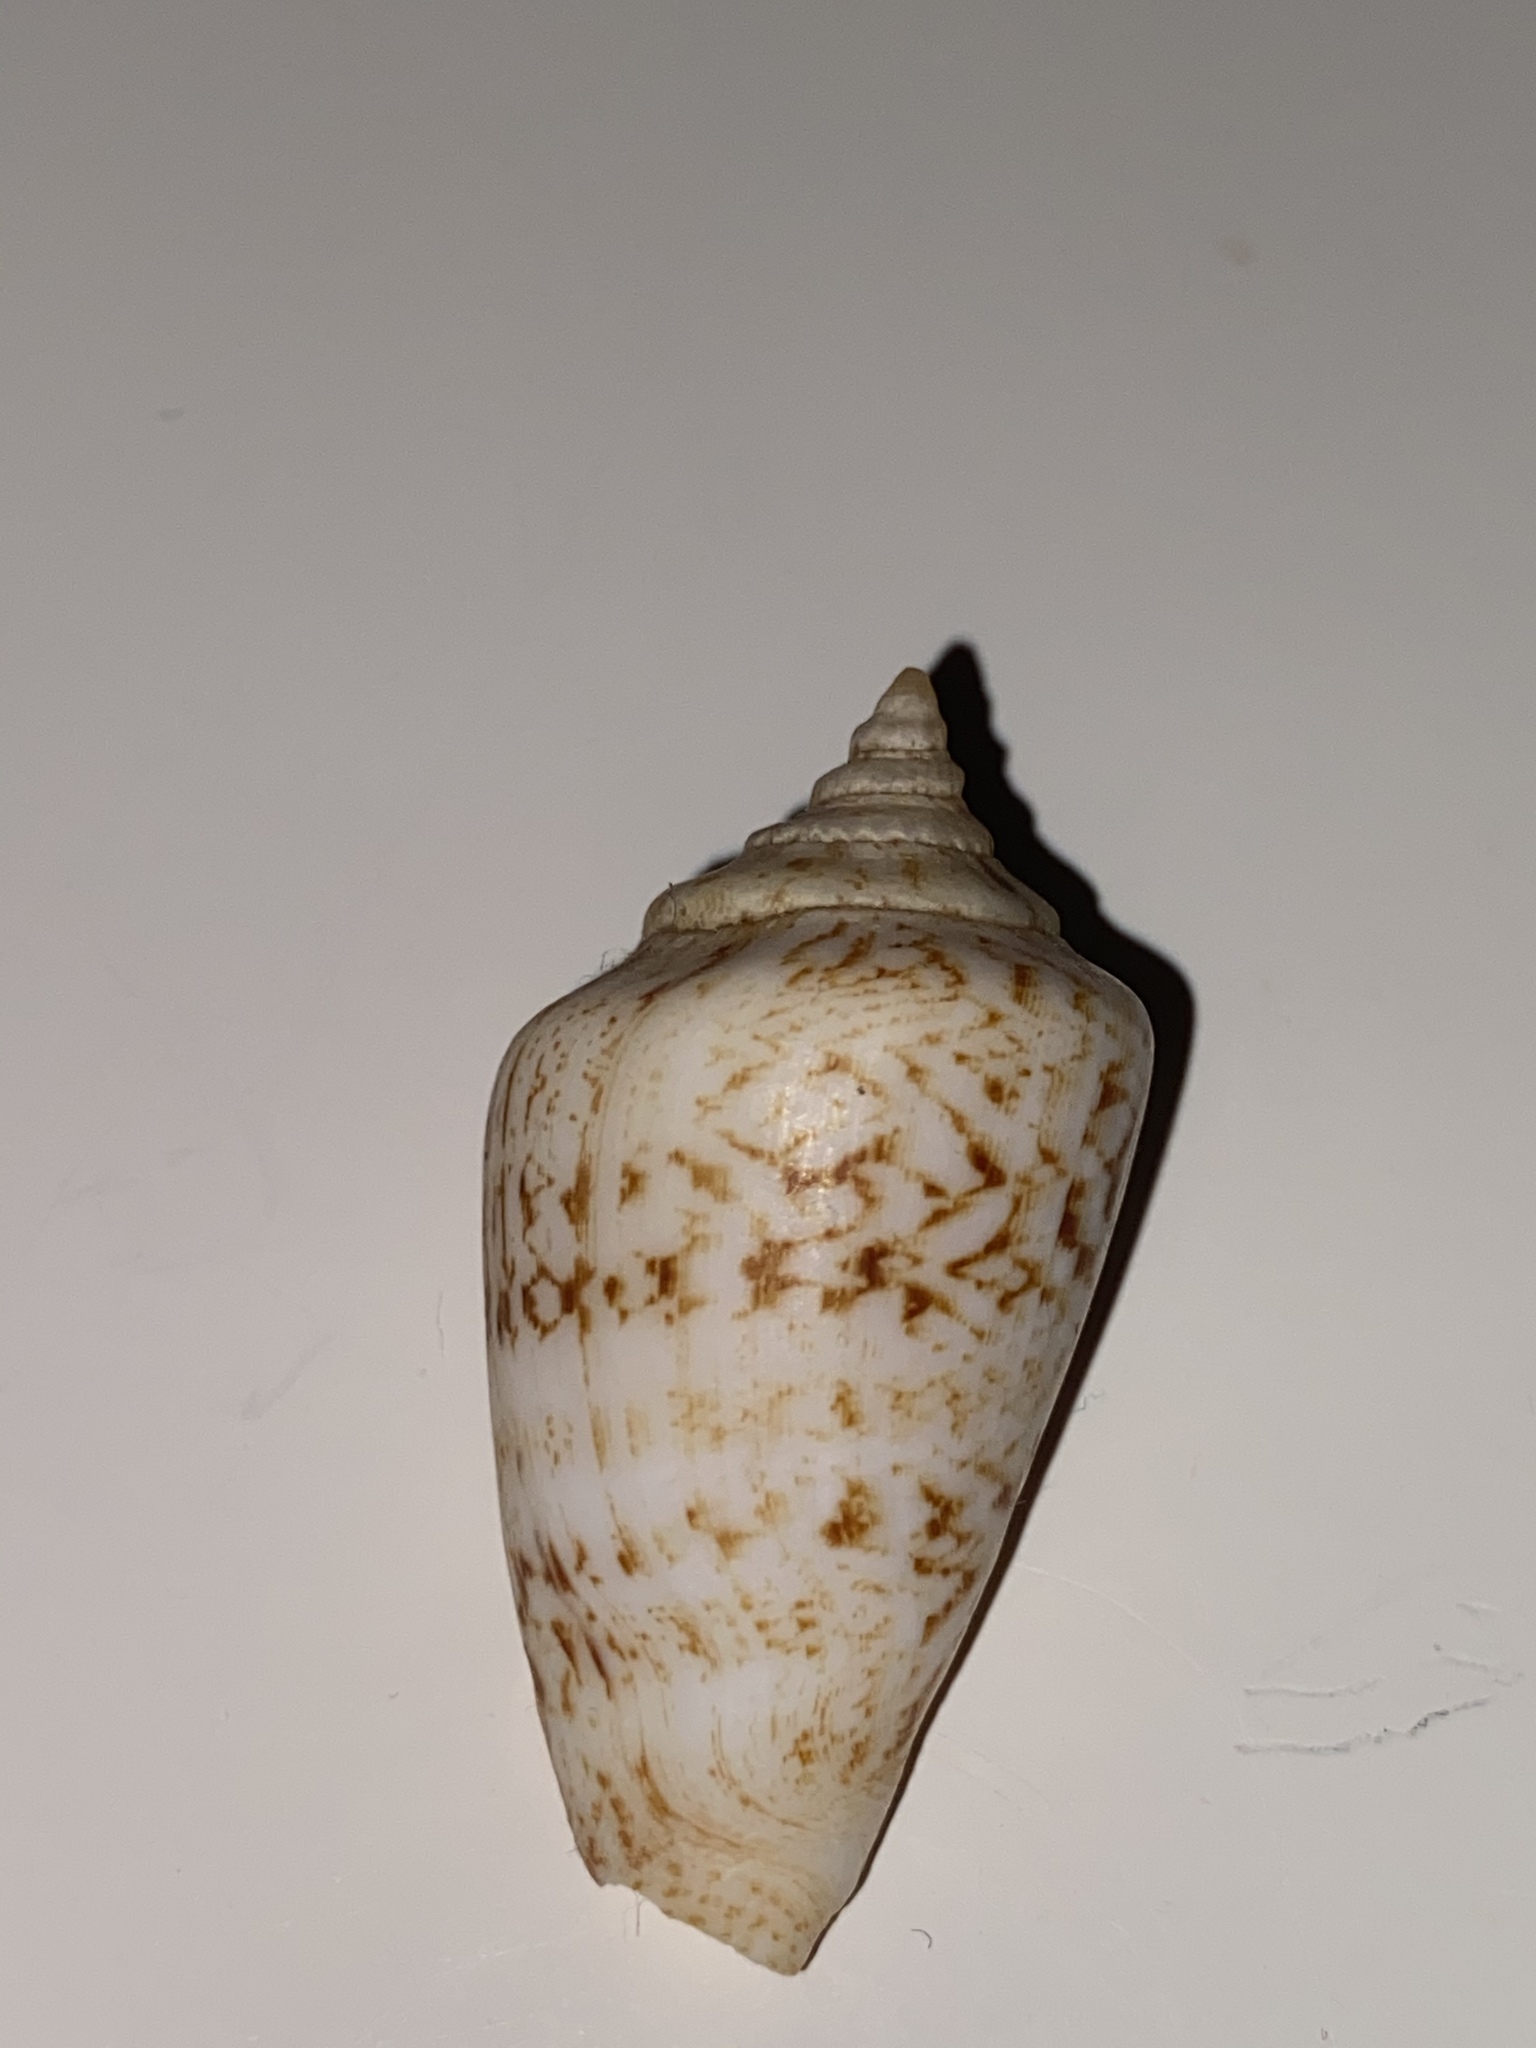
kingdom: Animalia
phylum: Mollusca
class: Gastropoda
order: Littorinimorpha
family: Strombidae
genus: Conomurex
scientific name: Conomurex persicus
